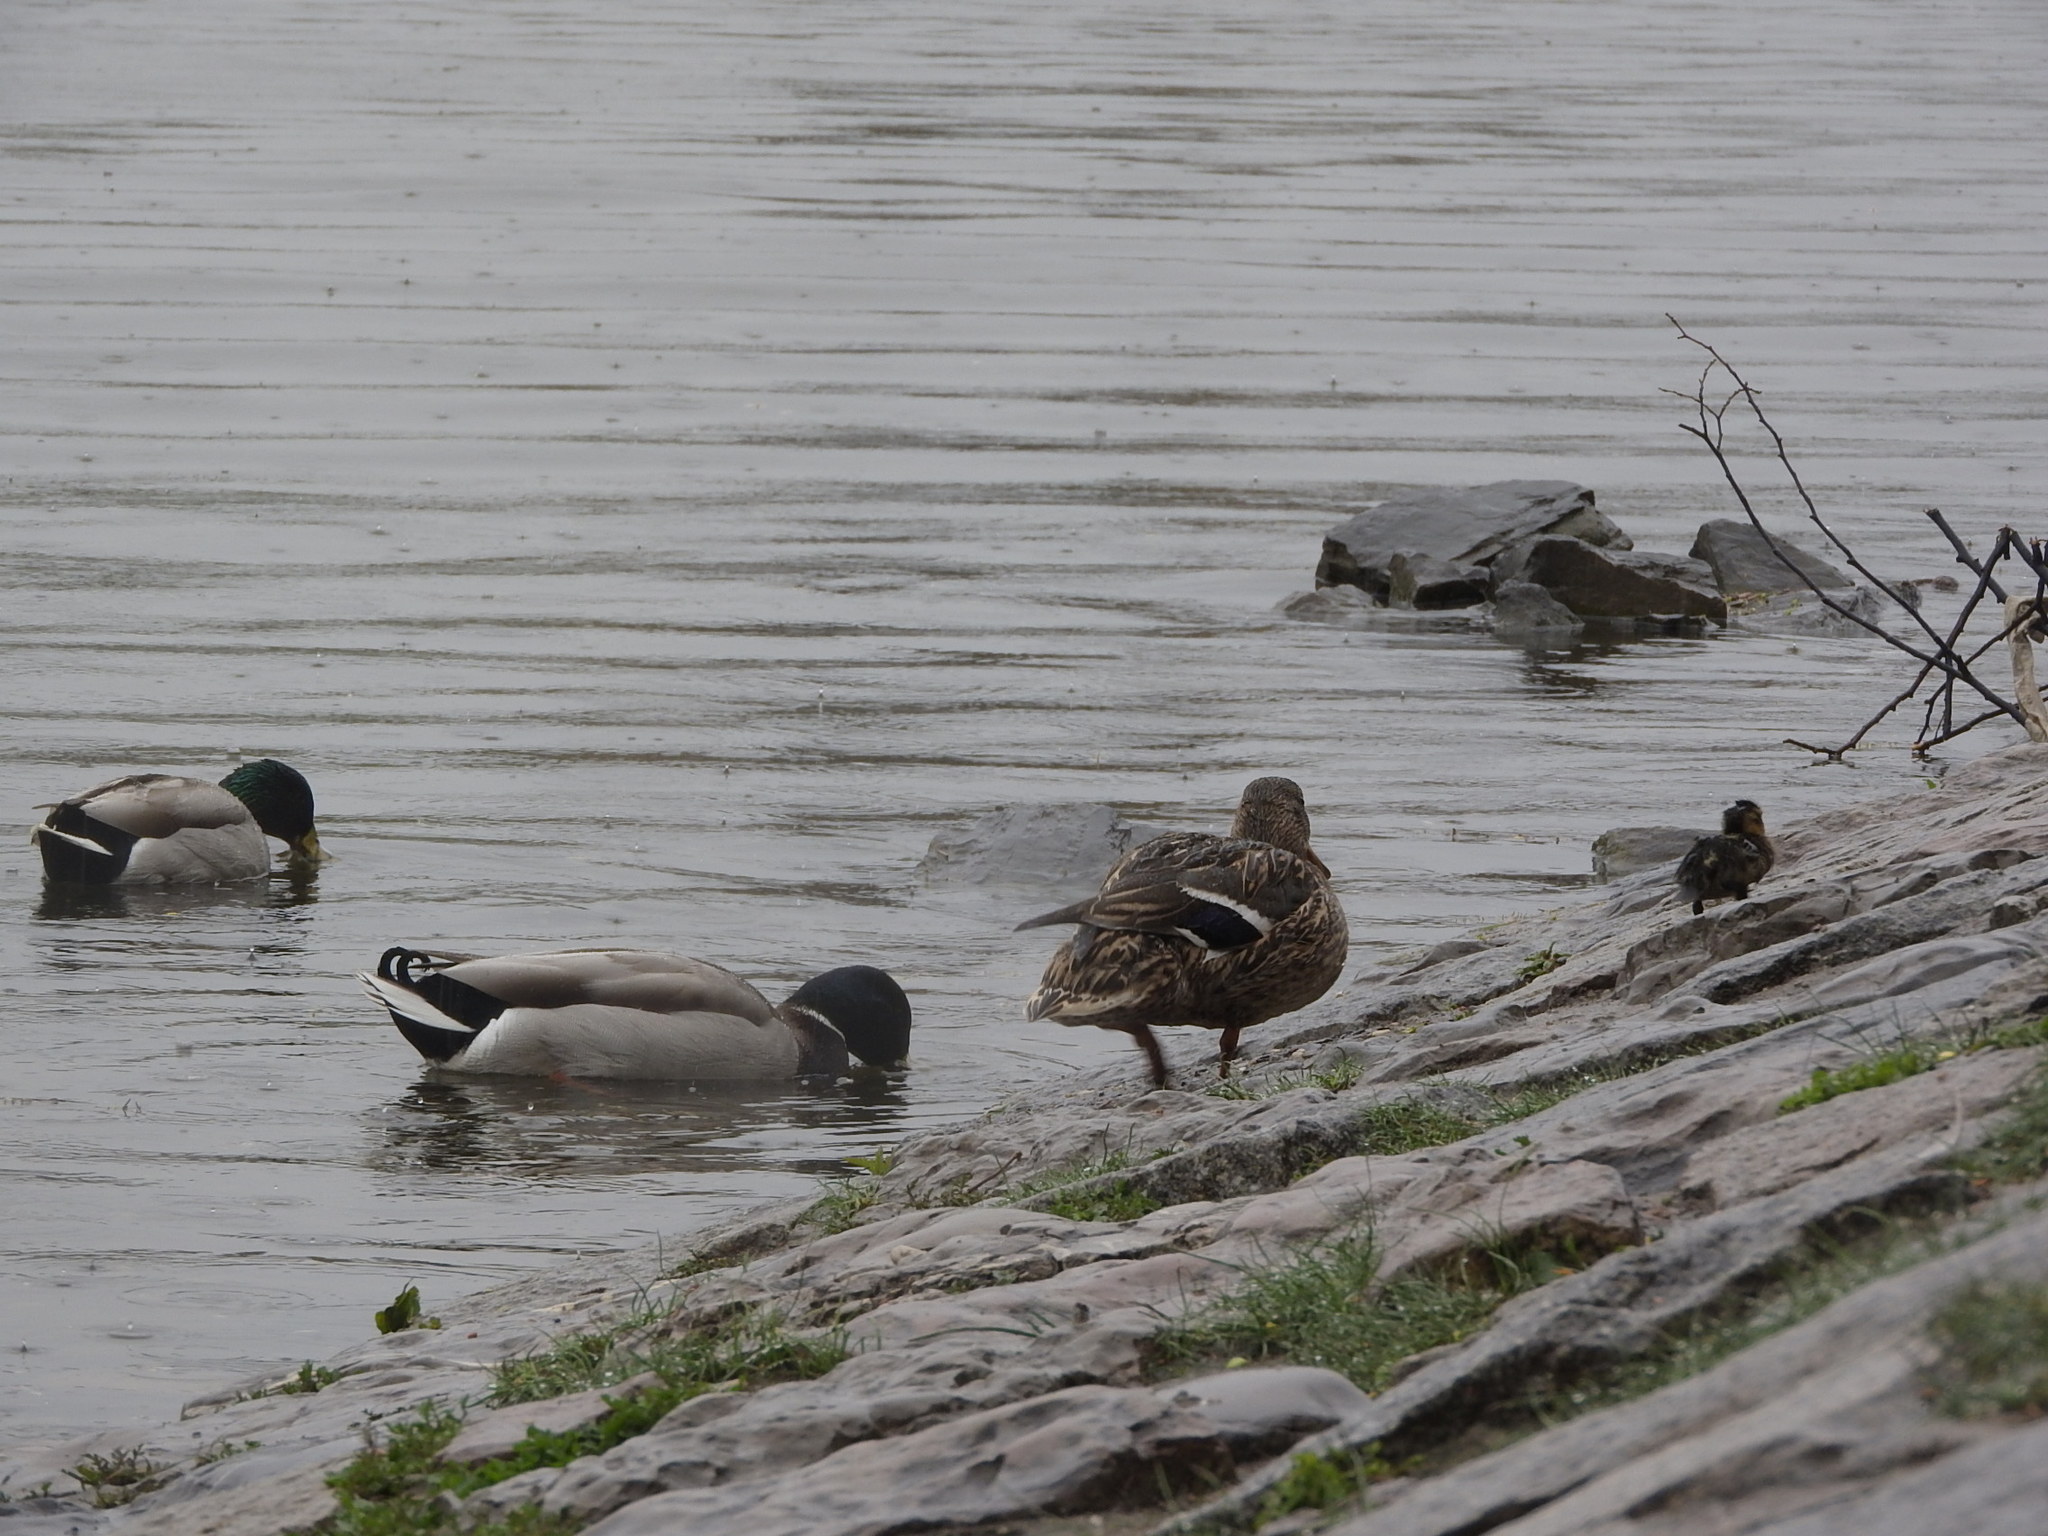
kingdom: Animalia
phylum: Chordata
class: Aves
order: Anseriformes
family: Anatidae
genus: Anas
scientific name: Anas platyrhynchos
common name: Mallard
